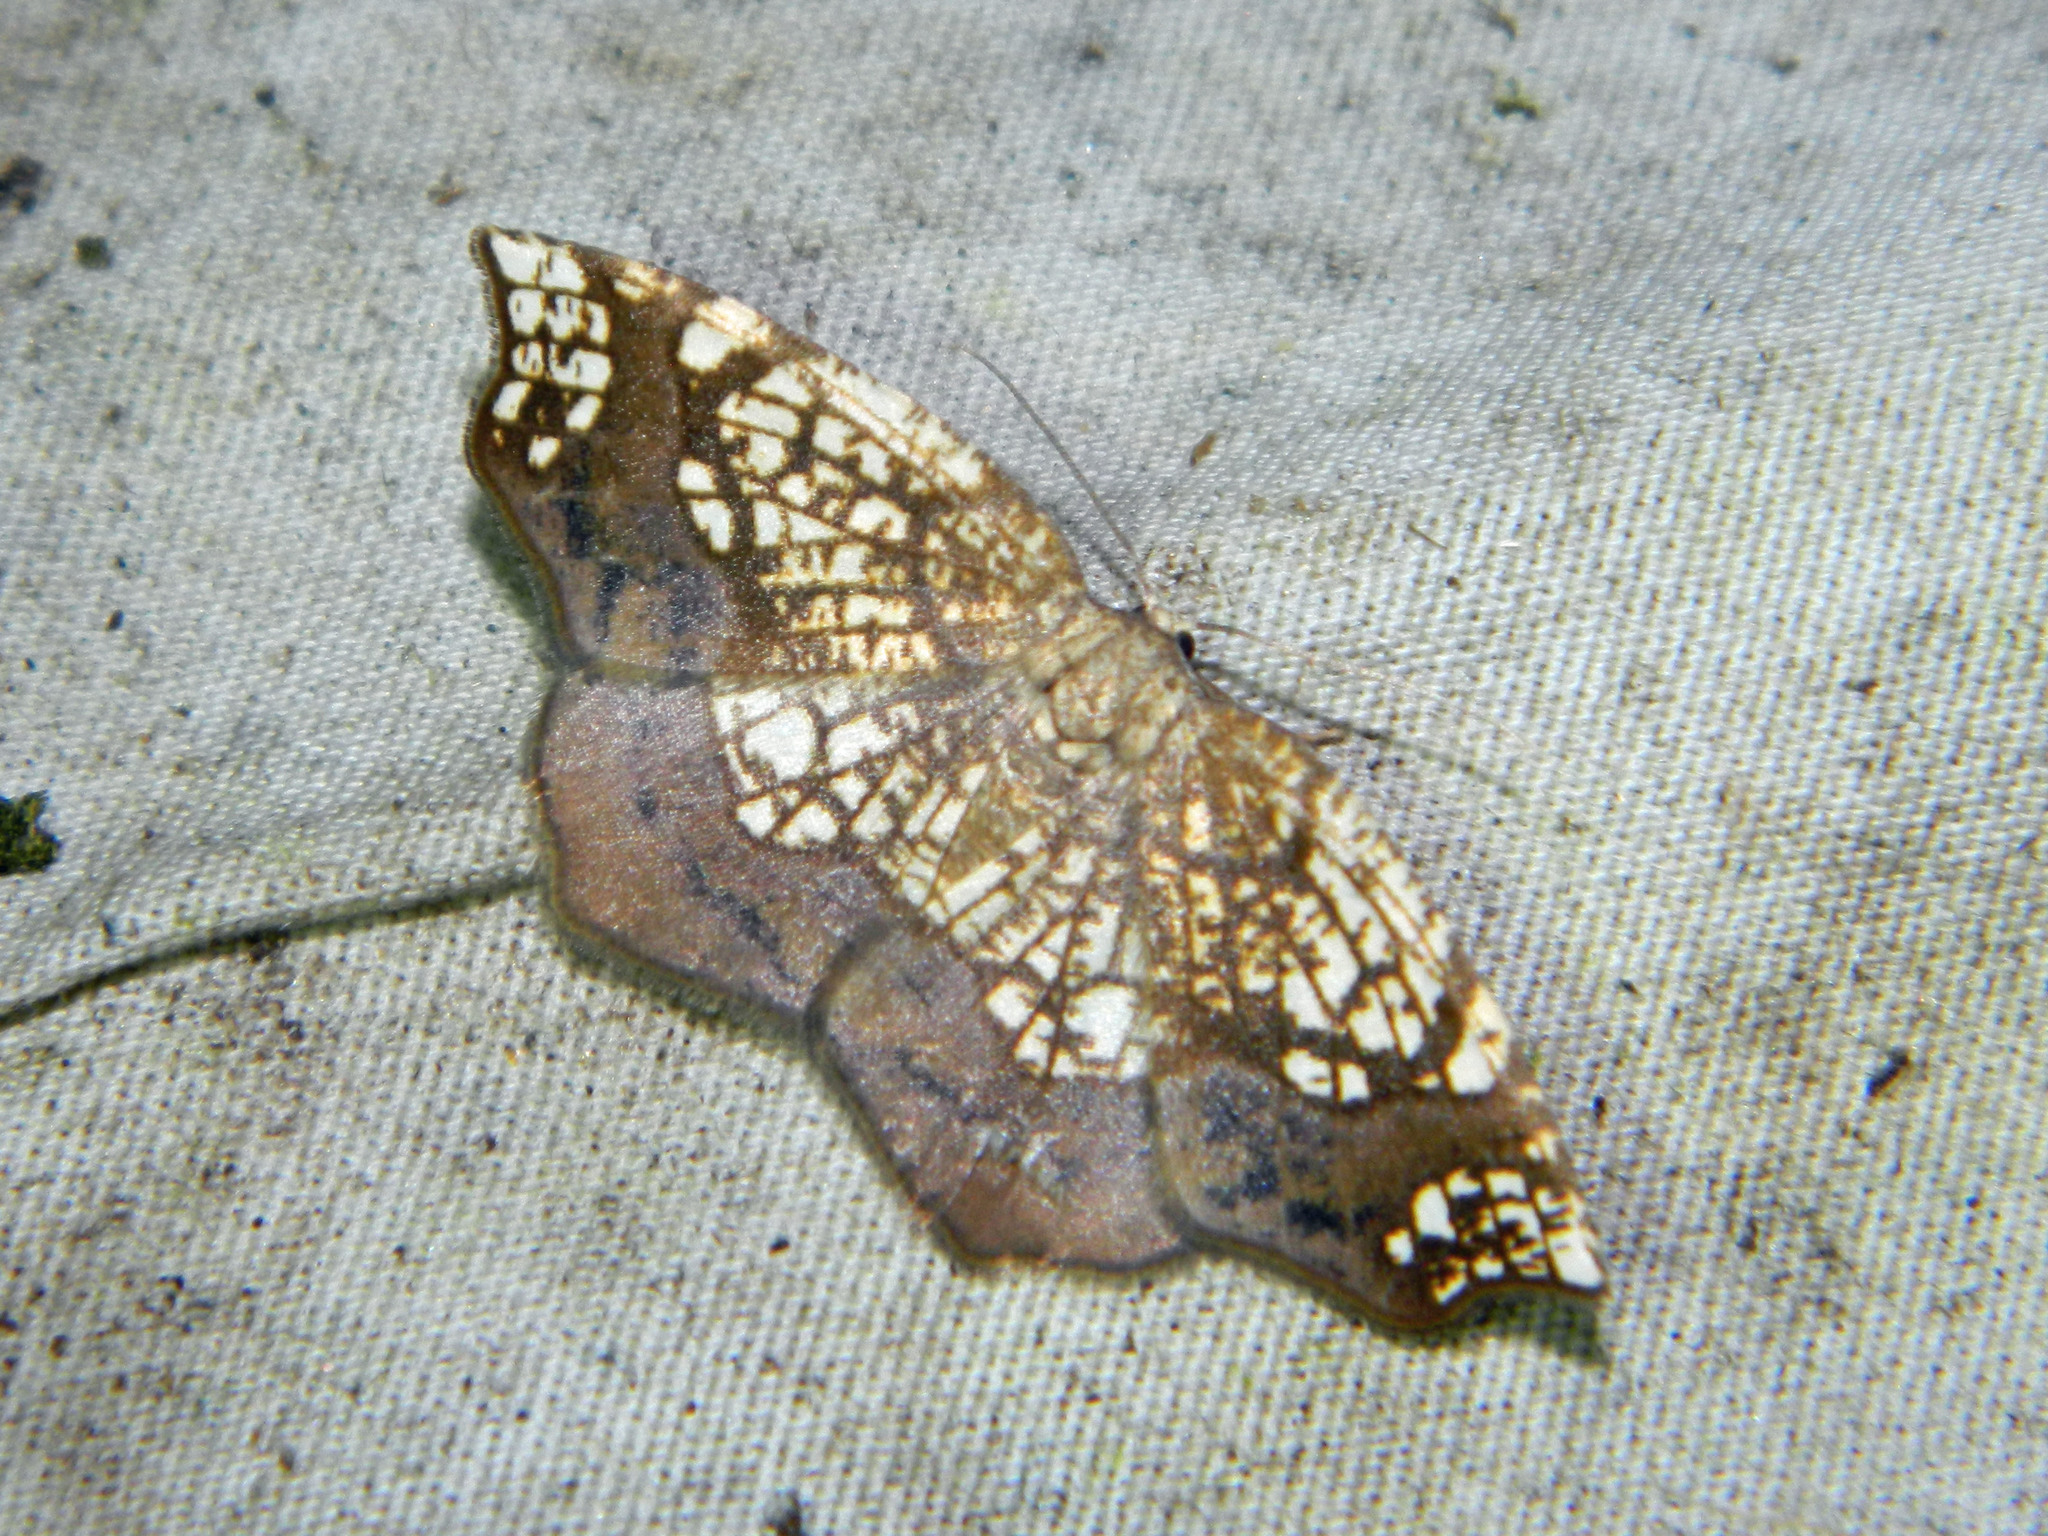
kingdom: Animalia
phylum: Arthropoda
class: Insecta
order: Lepidoptera
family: Geometridae
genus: Nematocampa
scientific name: Nematocampa resistaria
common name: Horned spanworm moth
